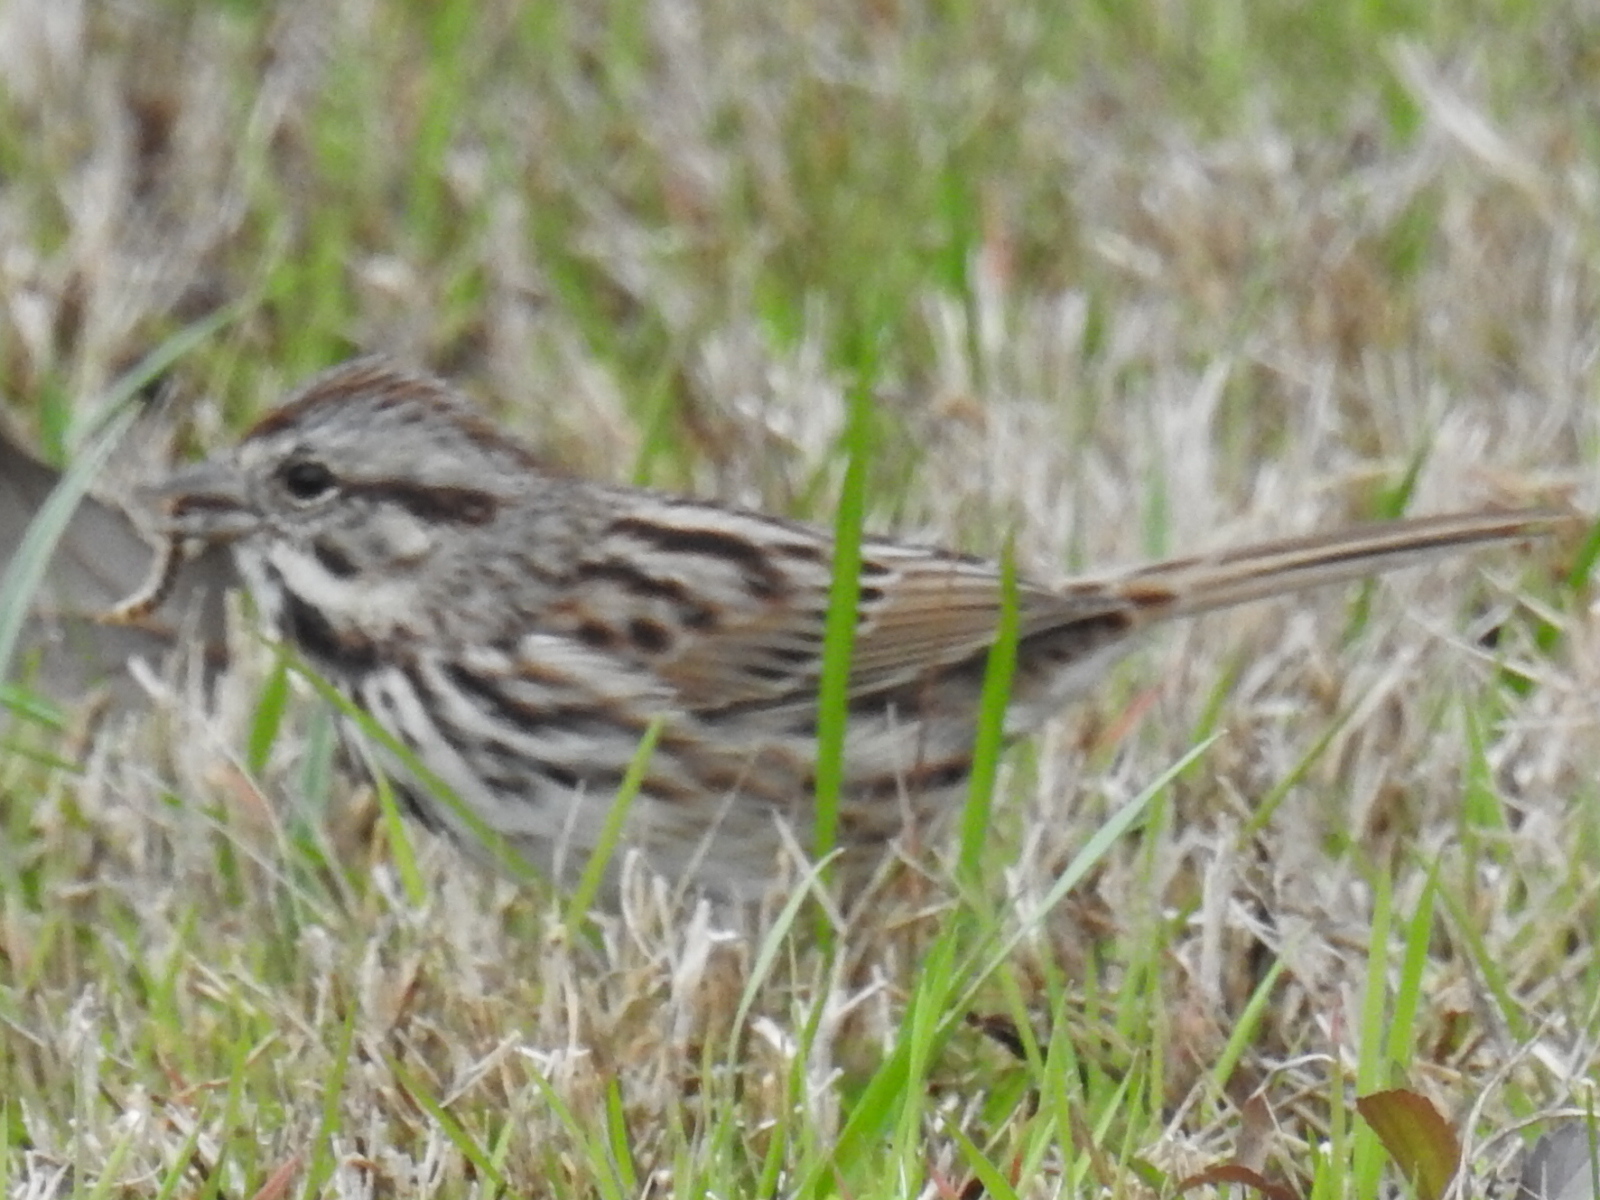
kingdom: Animalia
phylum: Chordata
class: Aves
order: Passeriformes
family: Passerellidae
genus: Melospiza
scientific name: Melospiza melodia
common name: Song sparrow
